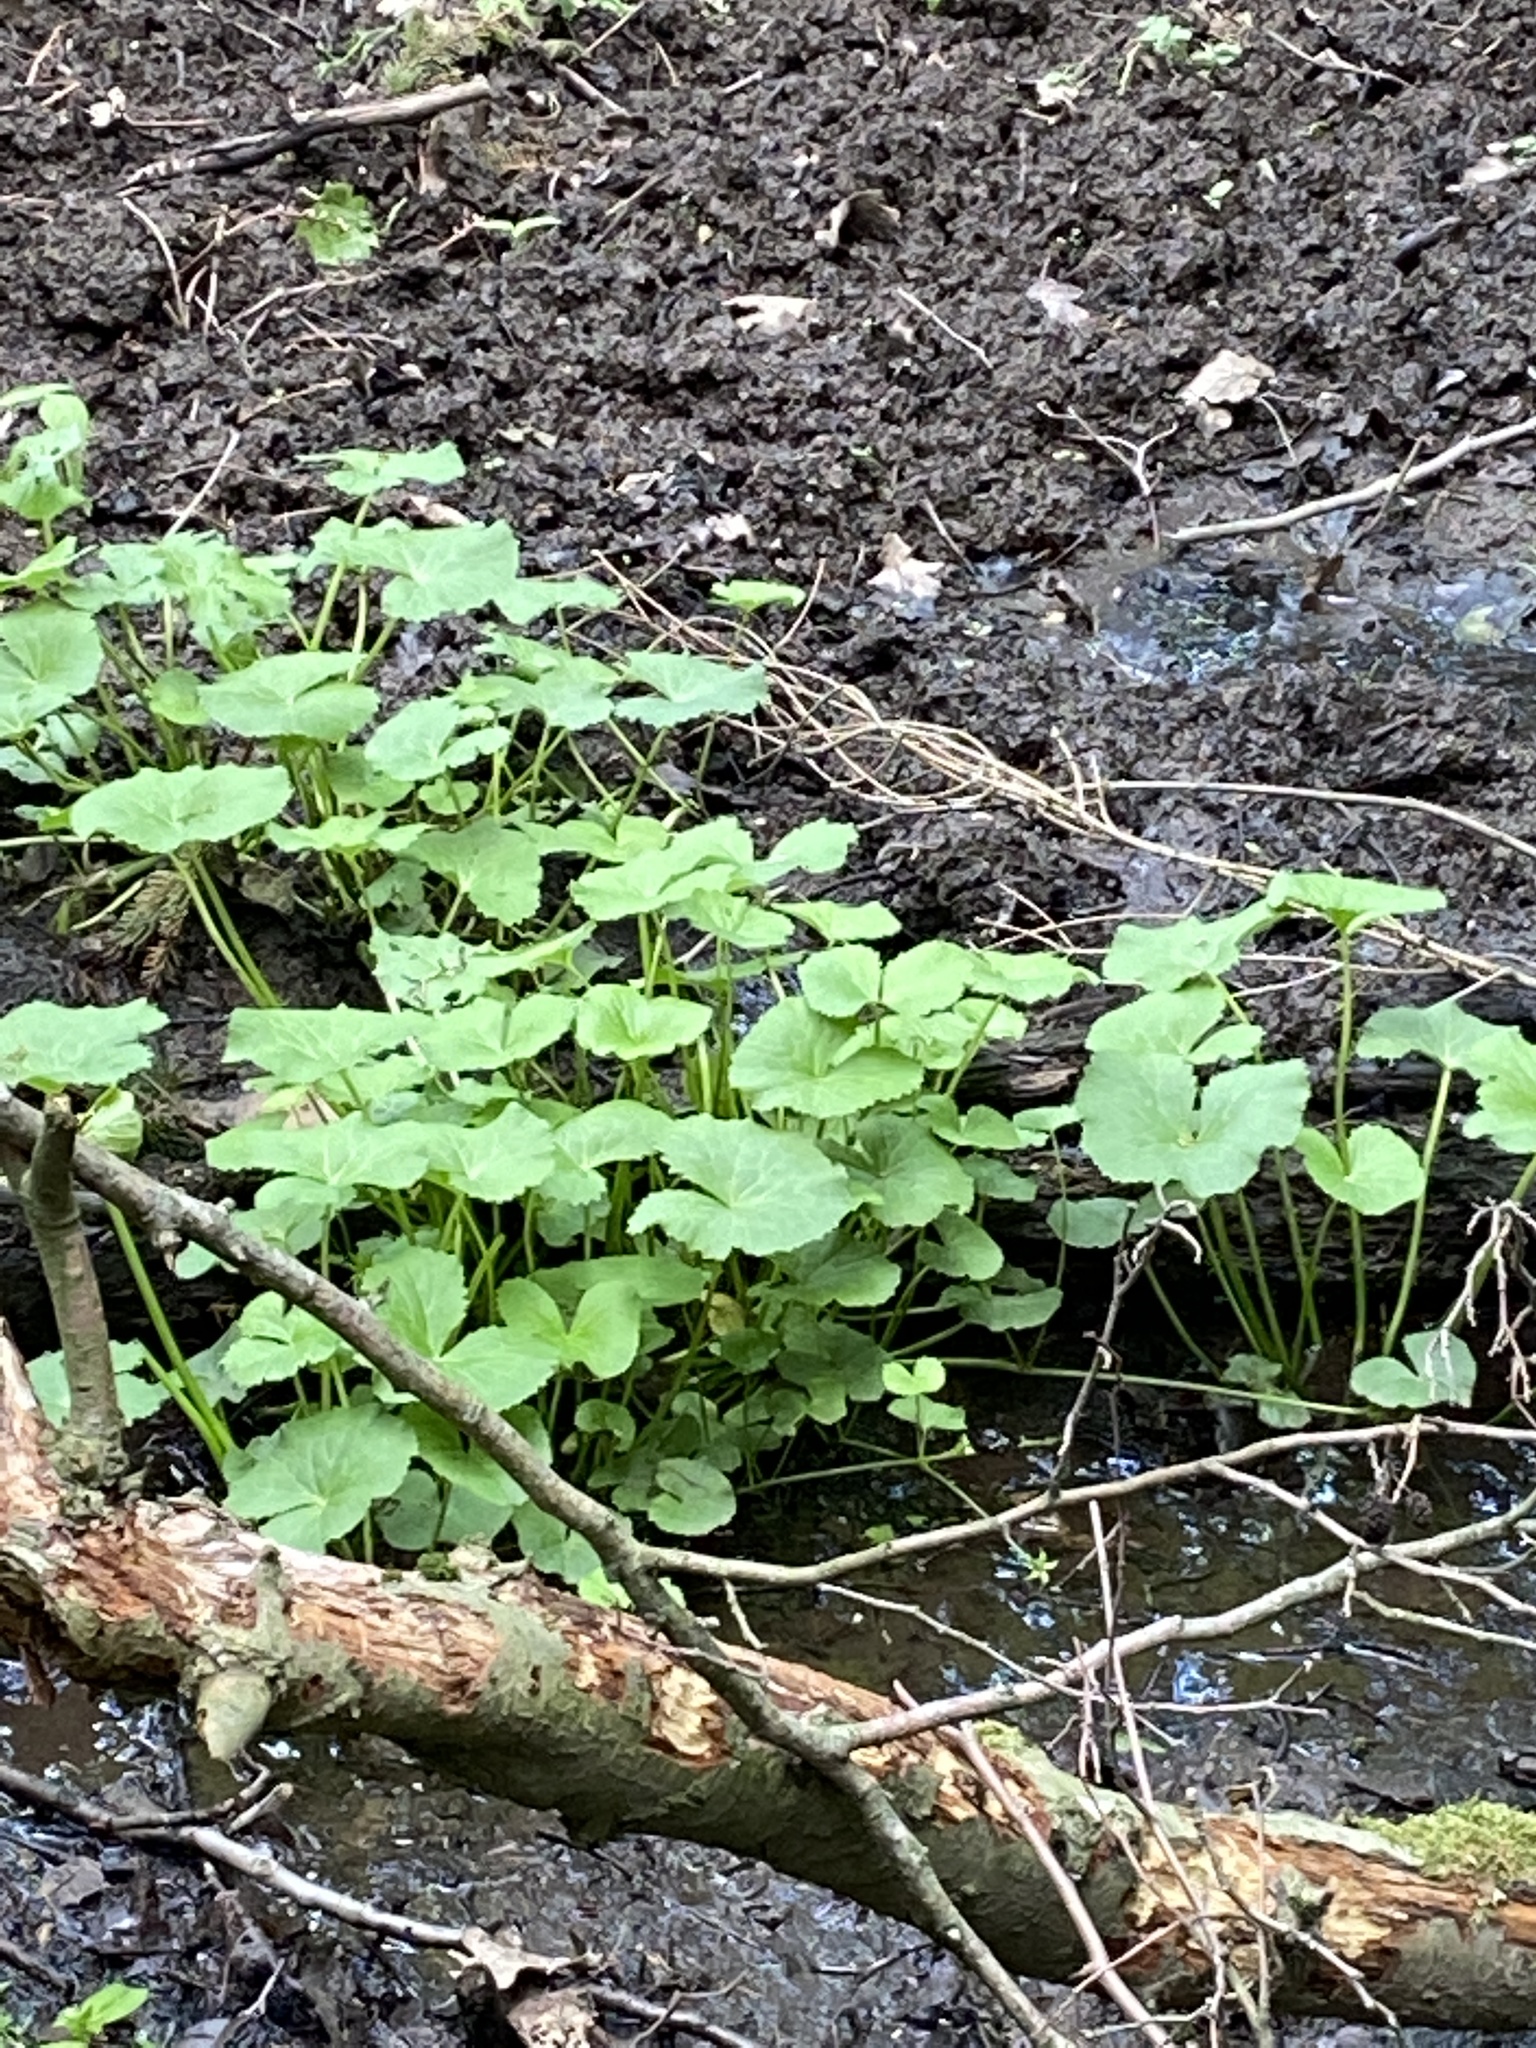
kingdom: Plantae
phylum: Tracheophyta
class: Magnoliopsida
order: Ranunculales
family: Ranunculaceae
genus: Caltha
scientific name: Caltha palustris
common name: Marsh marigold
